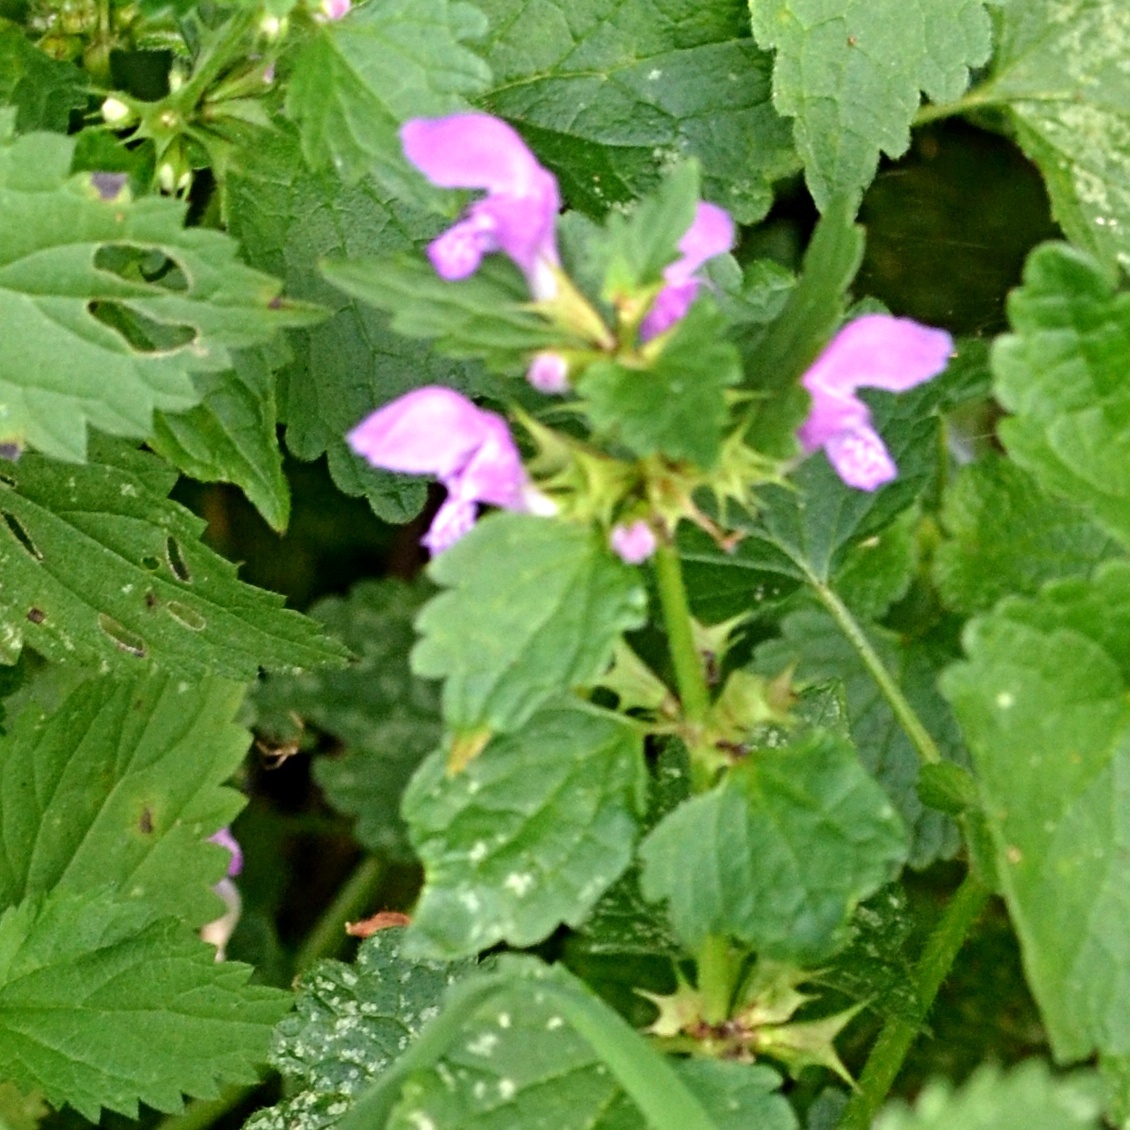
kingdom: Plantae
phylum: Tracheophyta
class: Magnoliopsida
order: Lamiales
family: Lamiaceae
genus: Lamium
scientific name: Lamium maculatum
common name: Spotted dead-nettle
